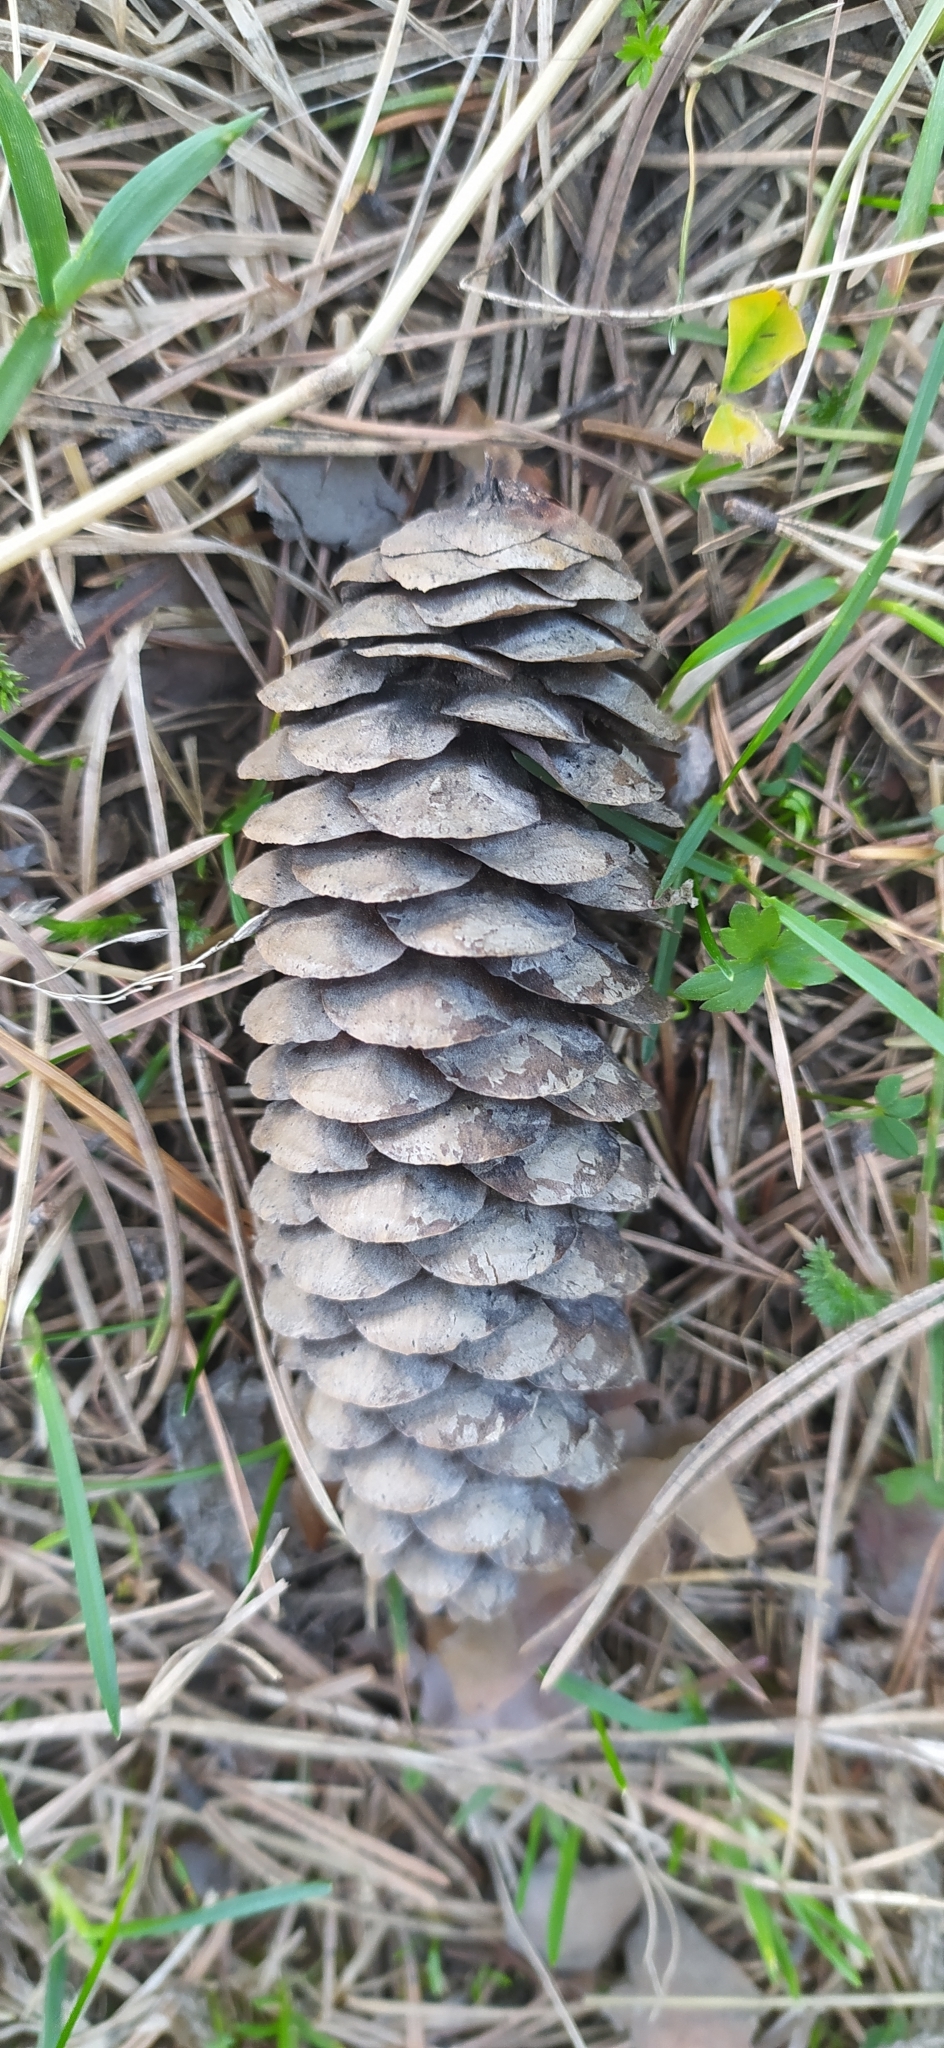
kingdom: Plantae
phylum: Tracheophyta
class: Pinopsida
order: Pinales
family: Pinaceae
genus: Picea
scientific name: Picea obovata
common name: Siberian spruce
